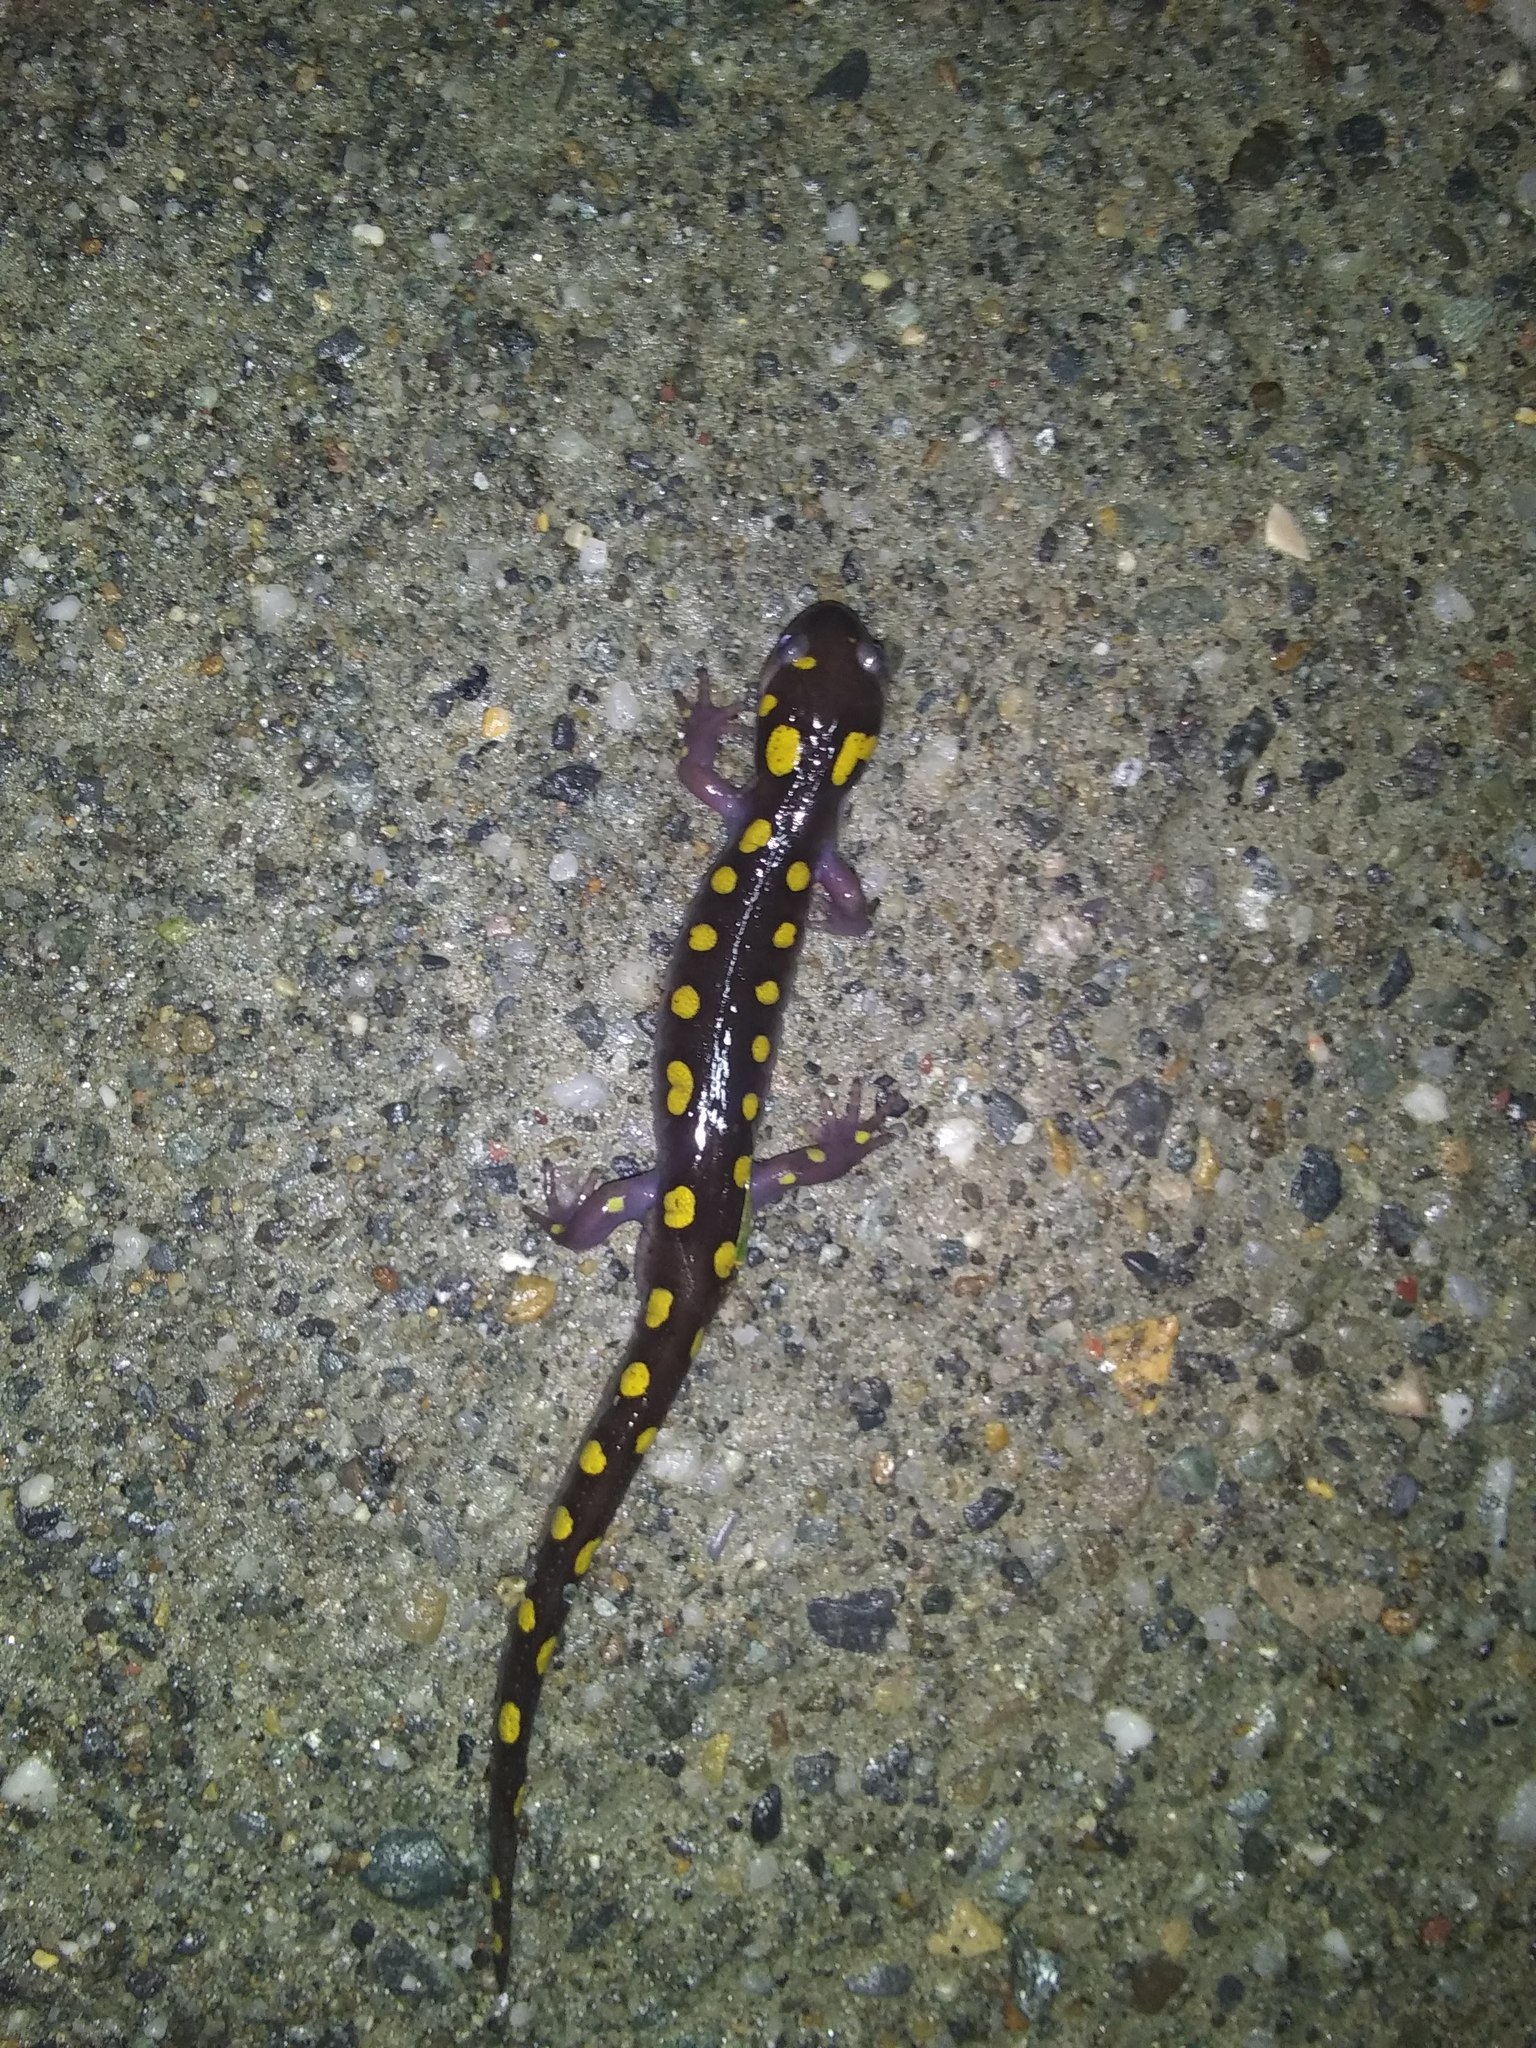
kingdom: Animalia
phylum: Chordata
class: Amphibia
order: Caudata
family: Ambystomatidae
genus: Ambystoma
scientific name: Ambystoma maculatum
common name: Spotted salamander
